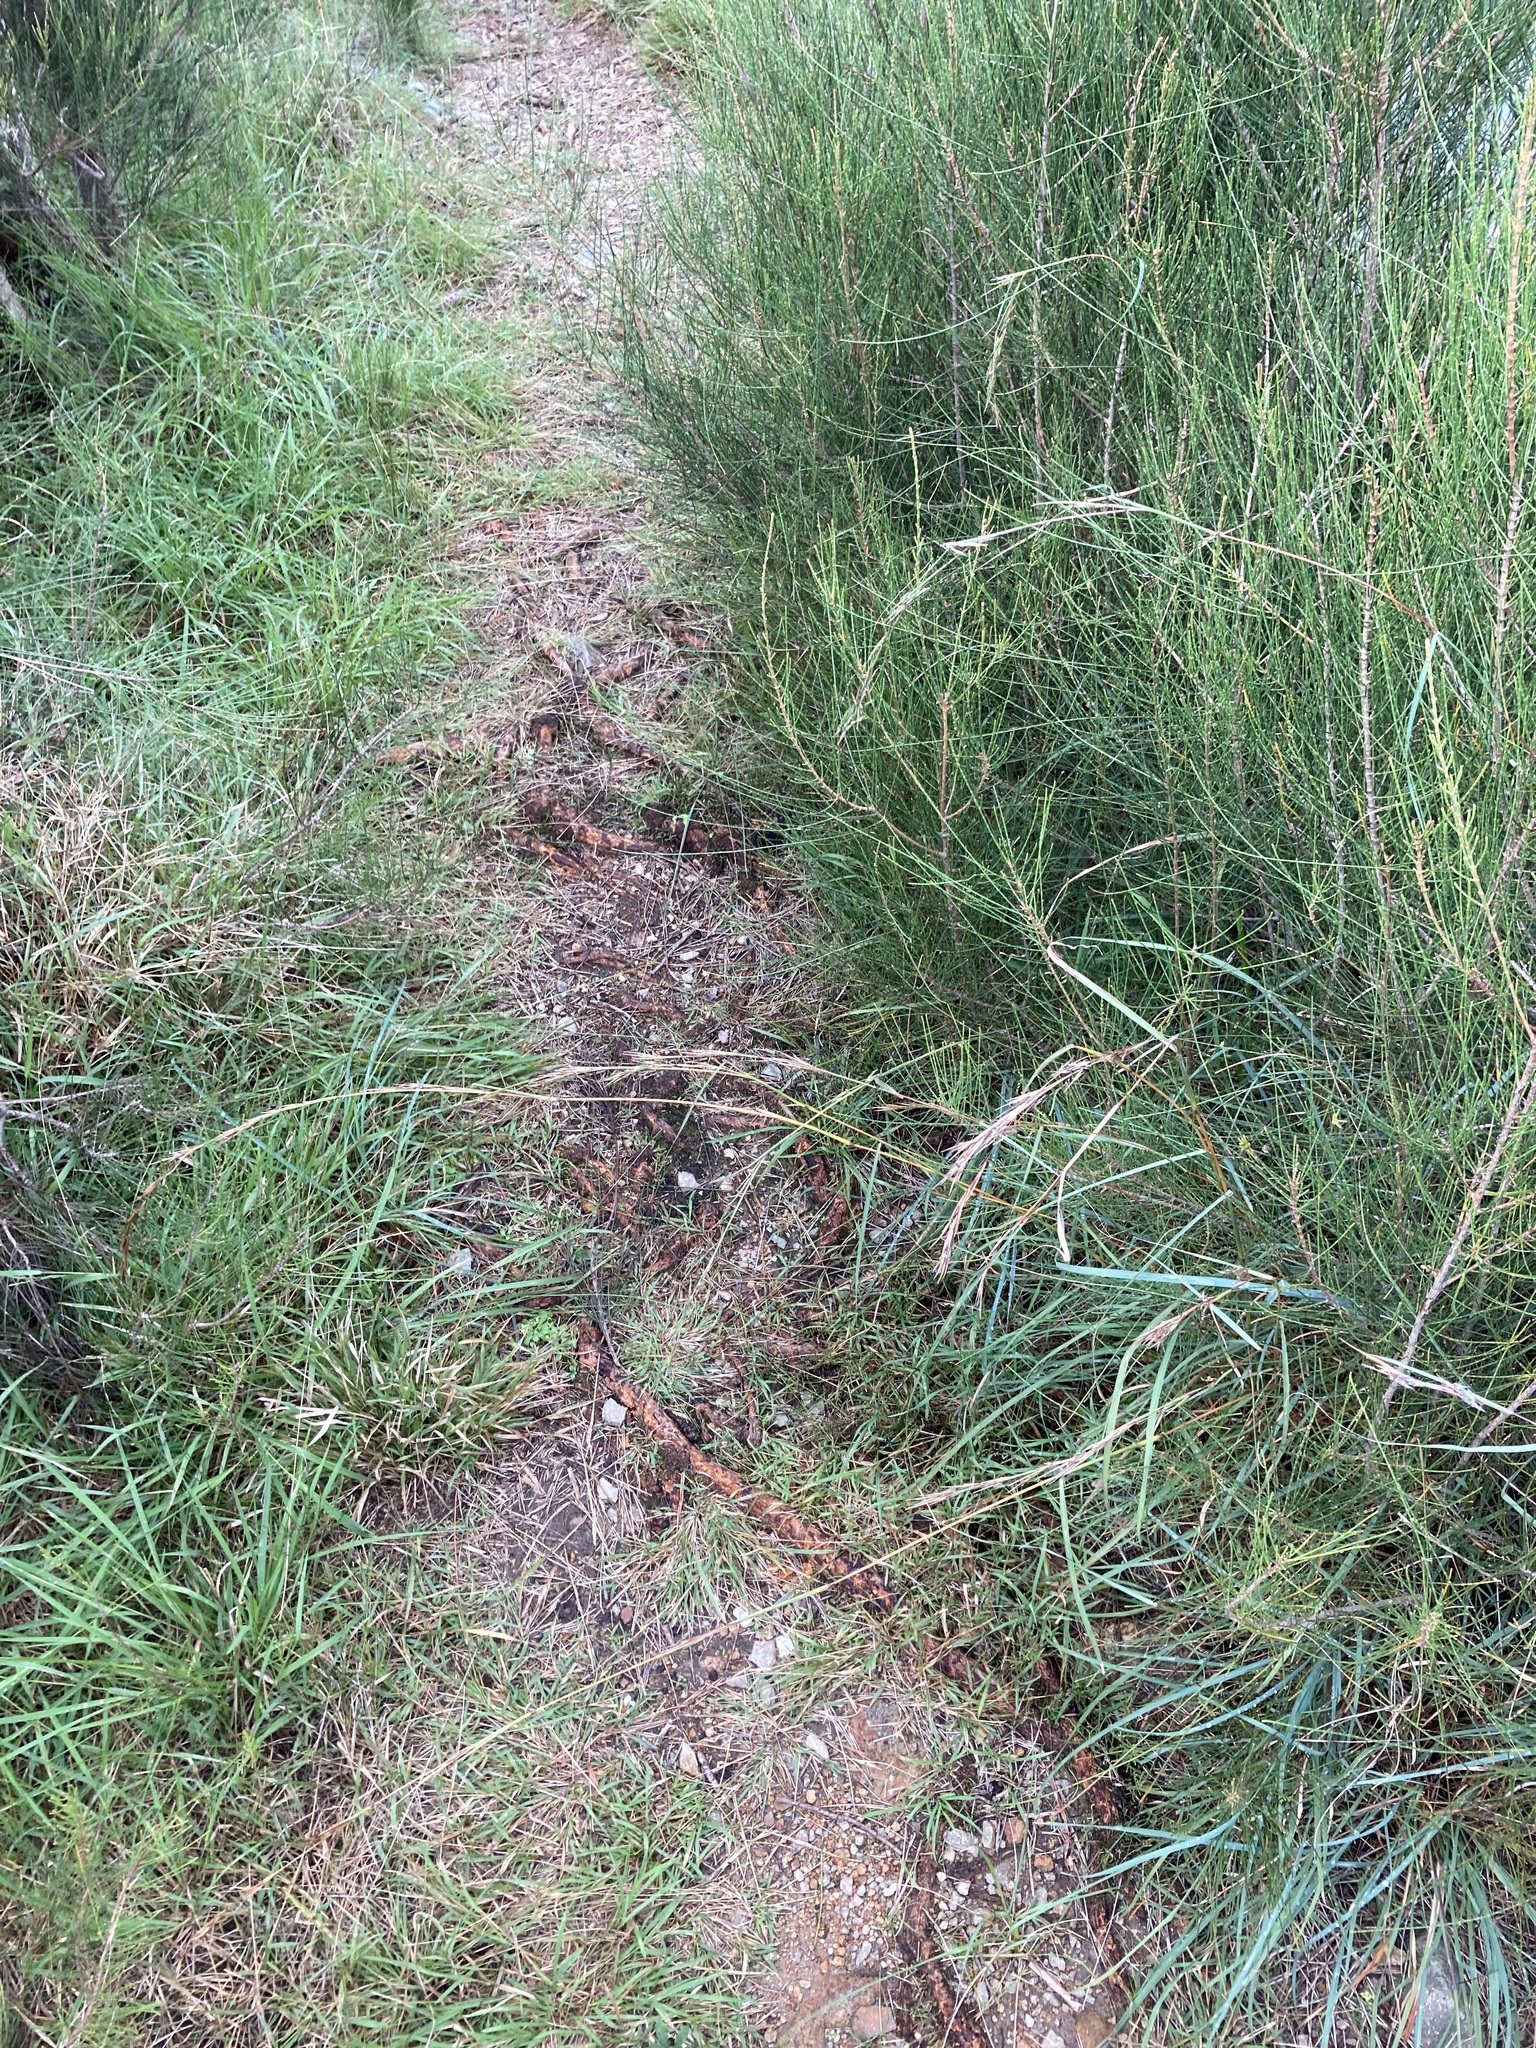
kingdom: Plantae
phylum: Tracheophyta
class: Liliopsida
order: Poales
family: Poaceae
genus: Cymbopogon
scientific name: Cymbopogon refractus
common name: Barbwire grass
